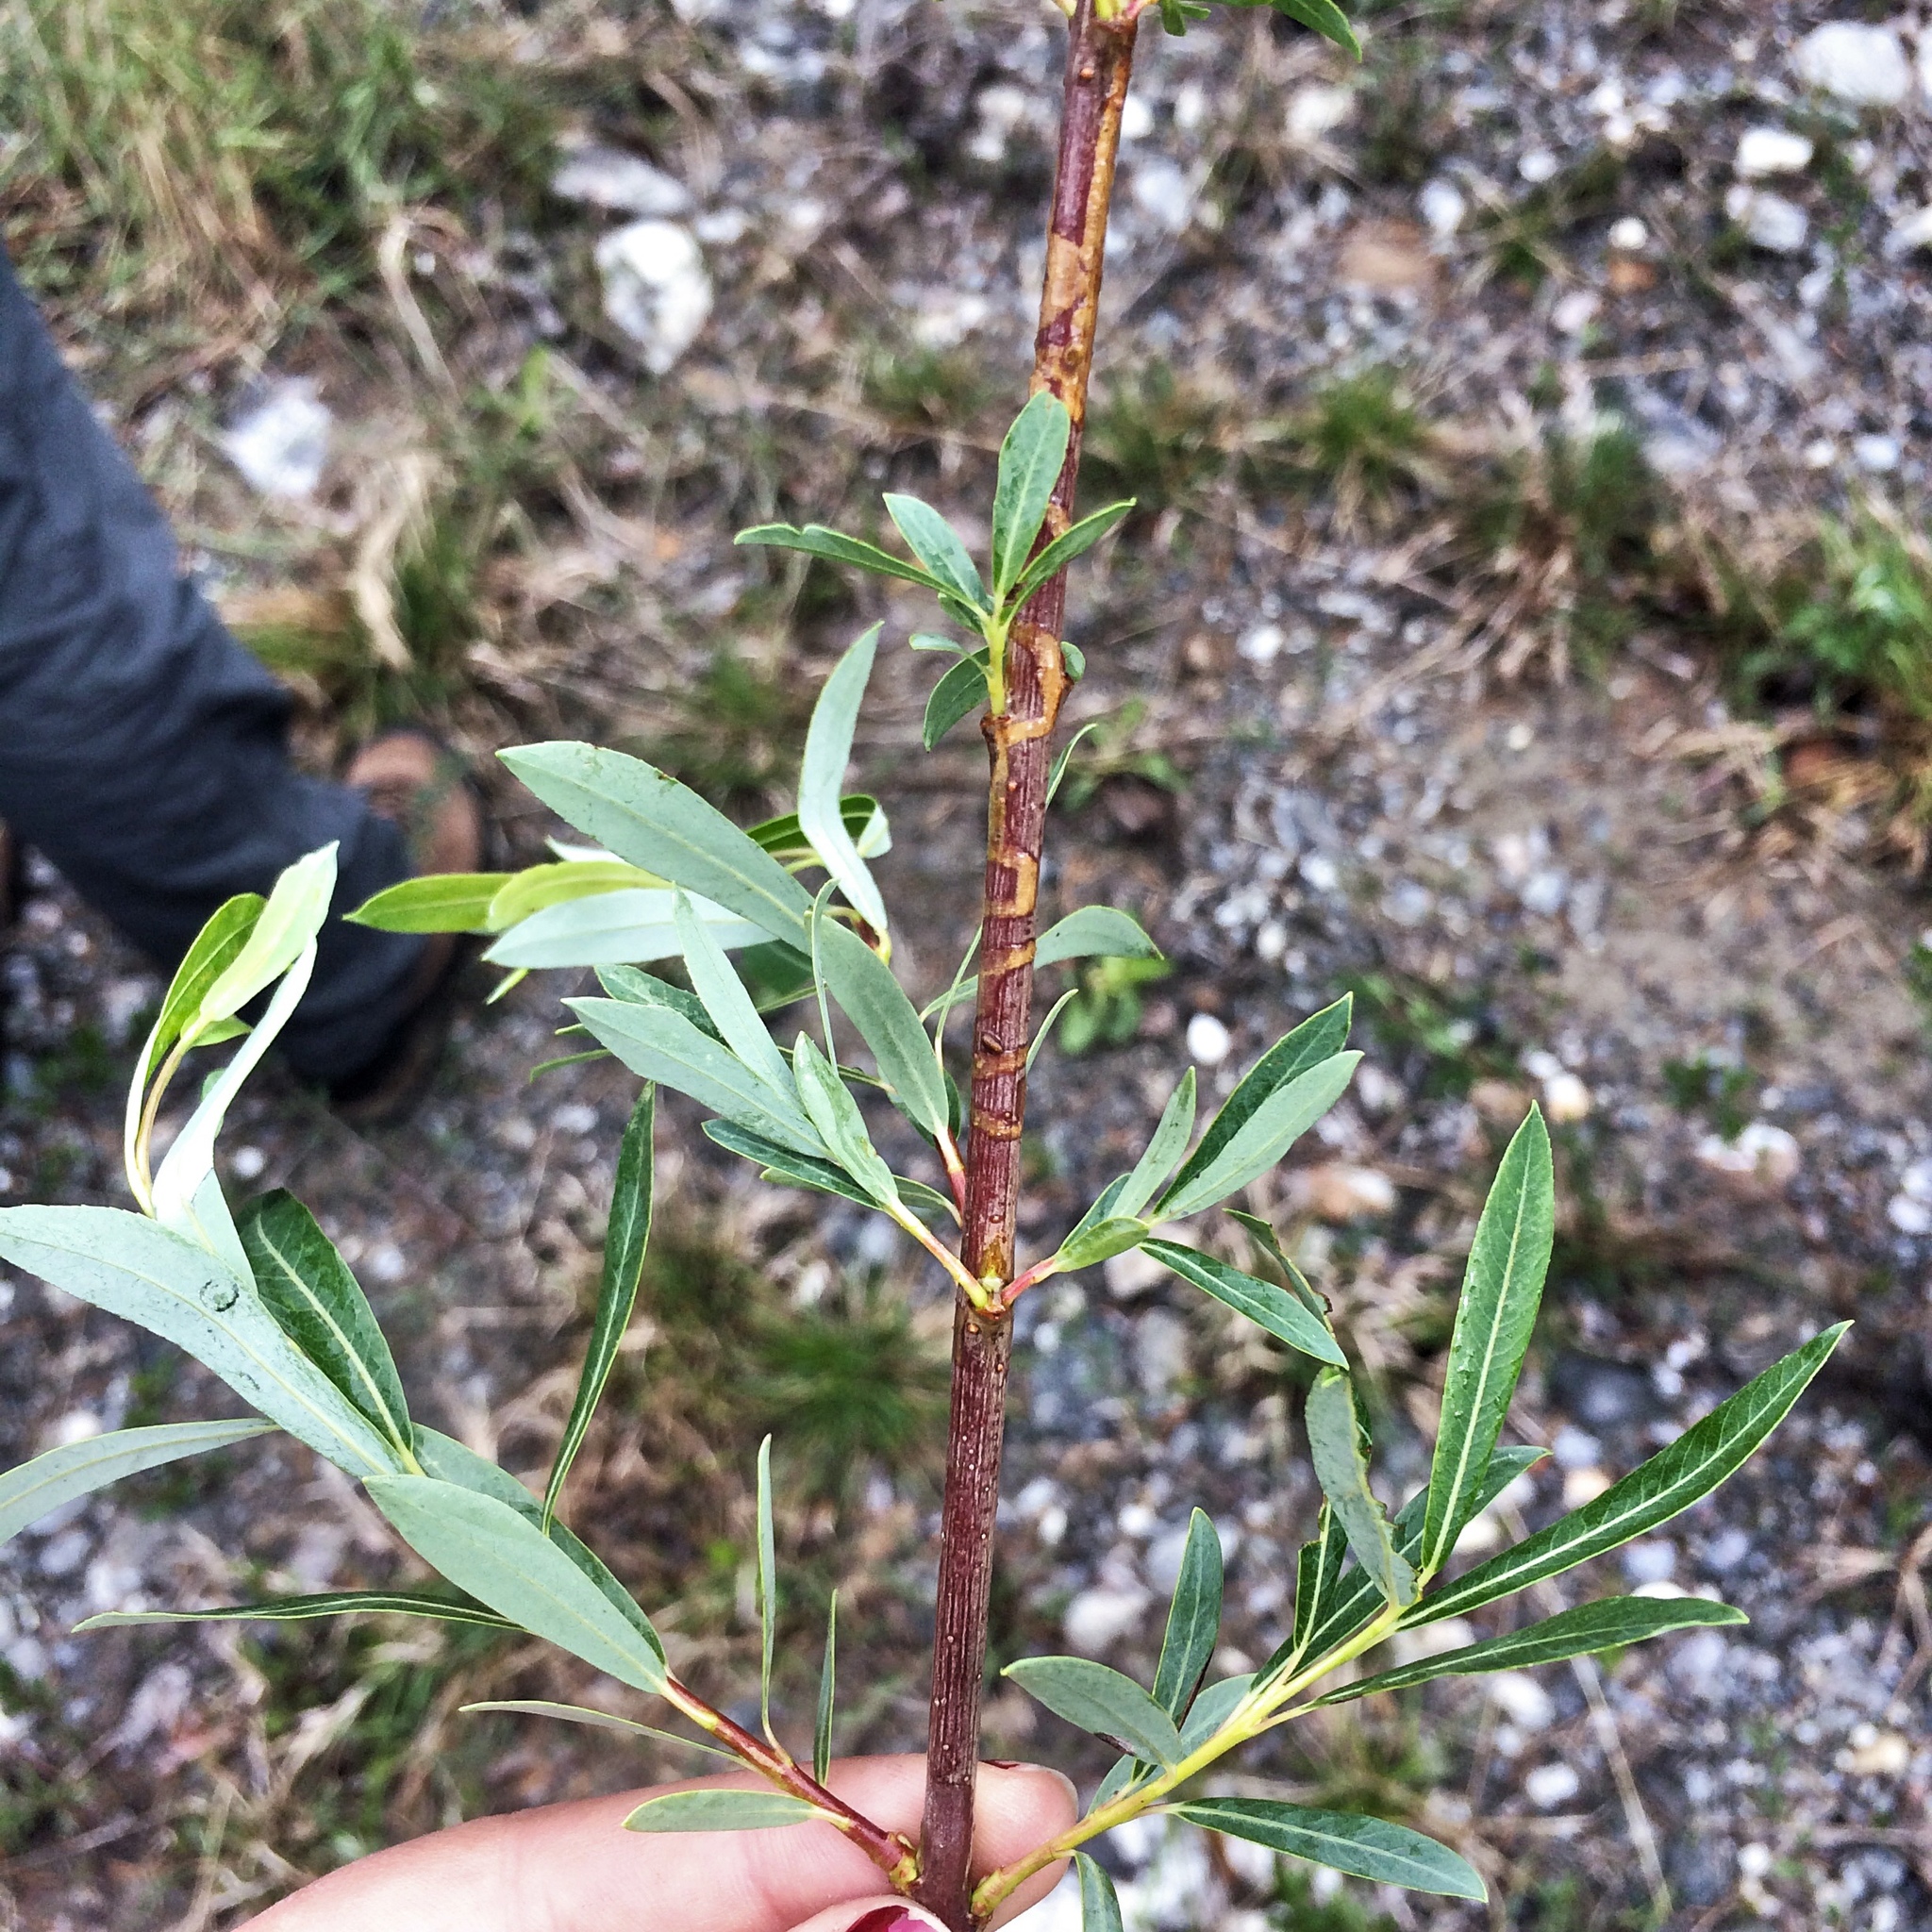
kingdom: Plantae
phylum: Tracheophyta
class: Magnoliopsida
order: Malpighiales
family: Salicaceae
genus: Salix
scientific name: Salix purpurea
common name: Purple willow
